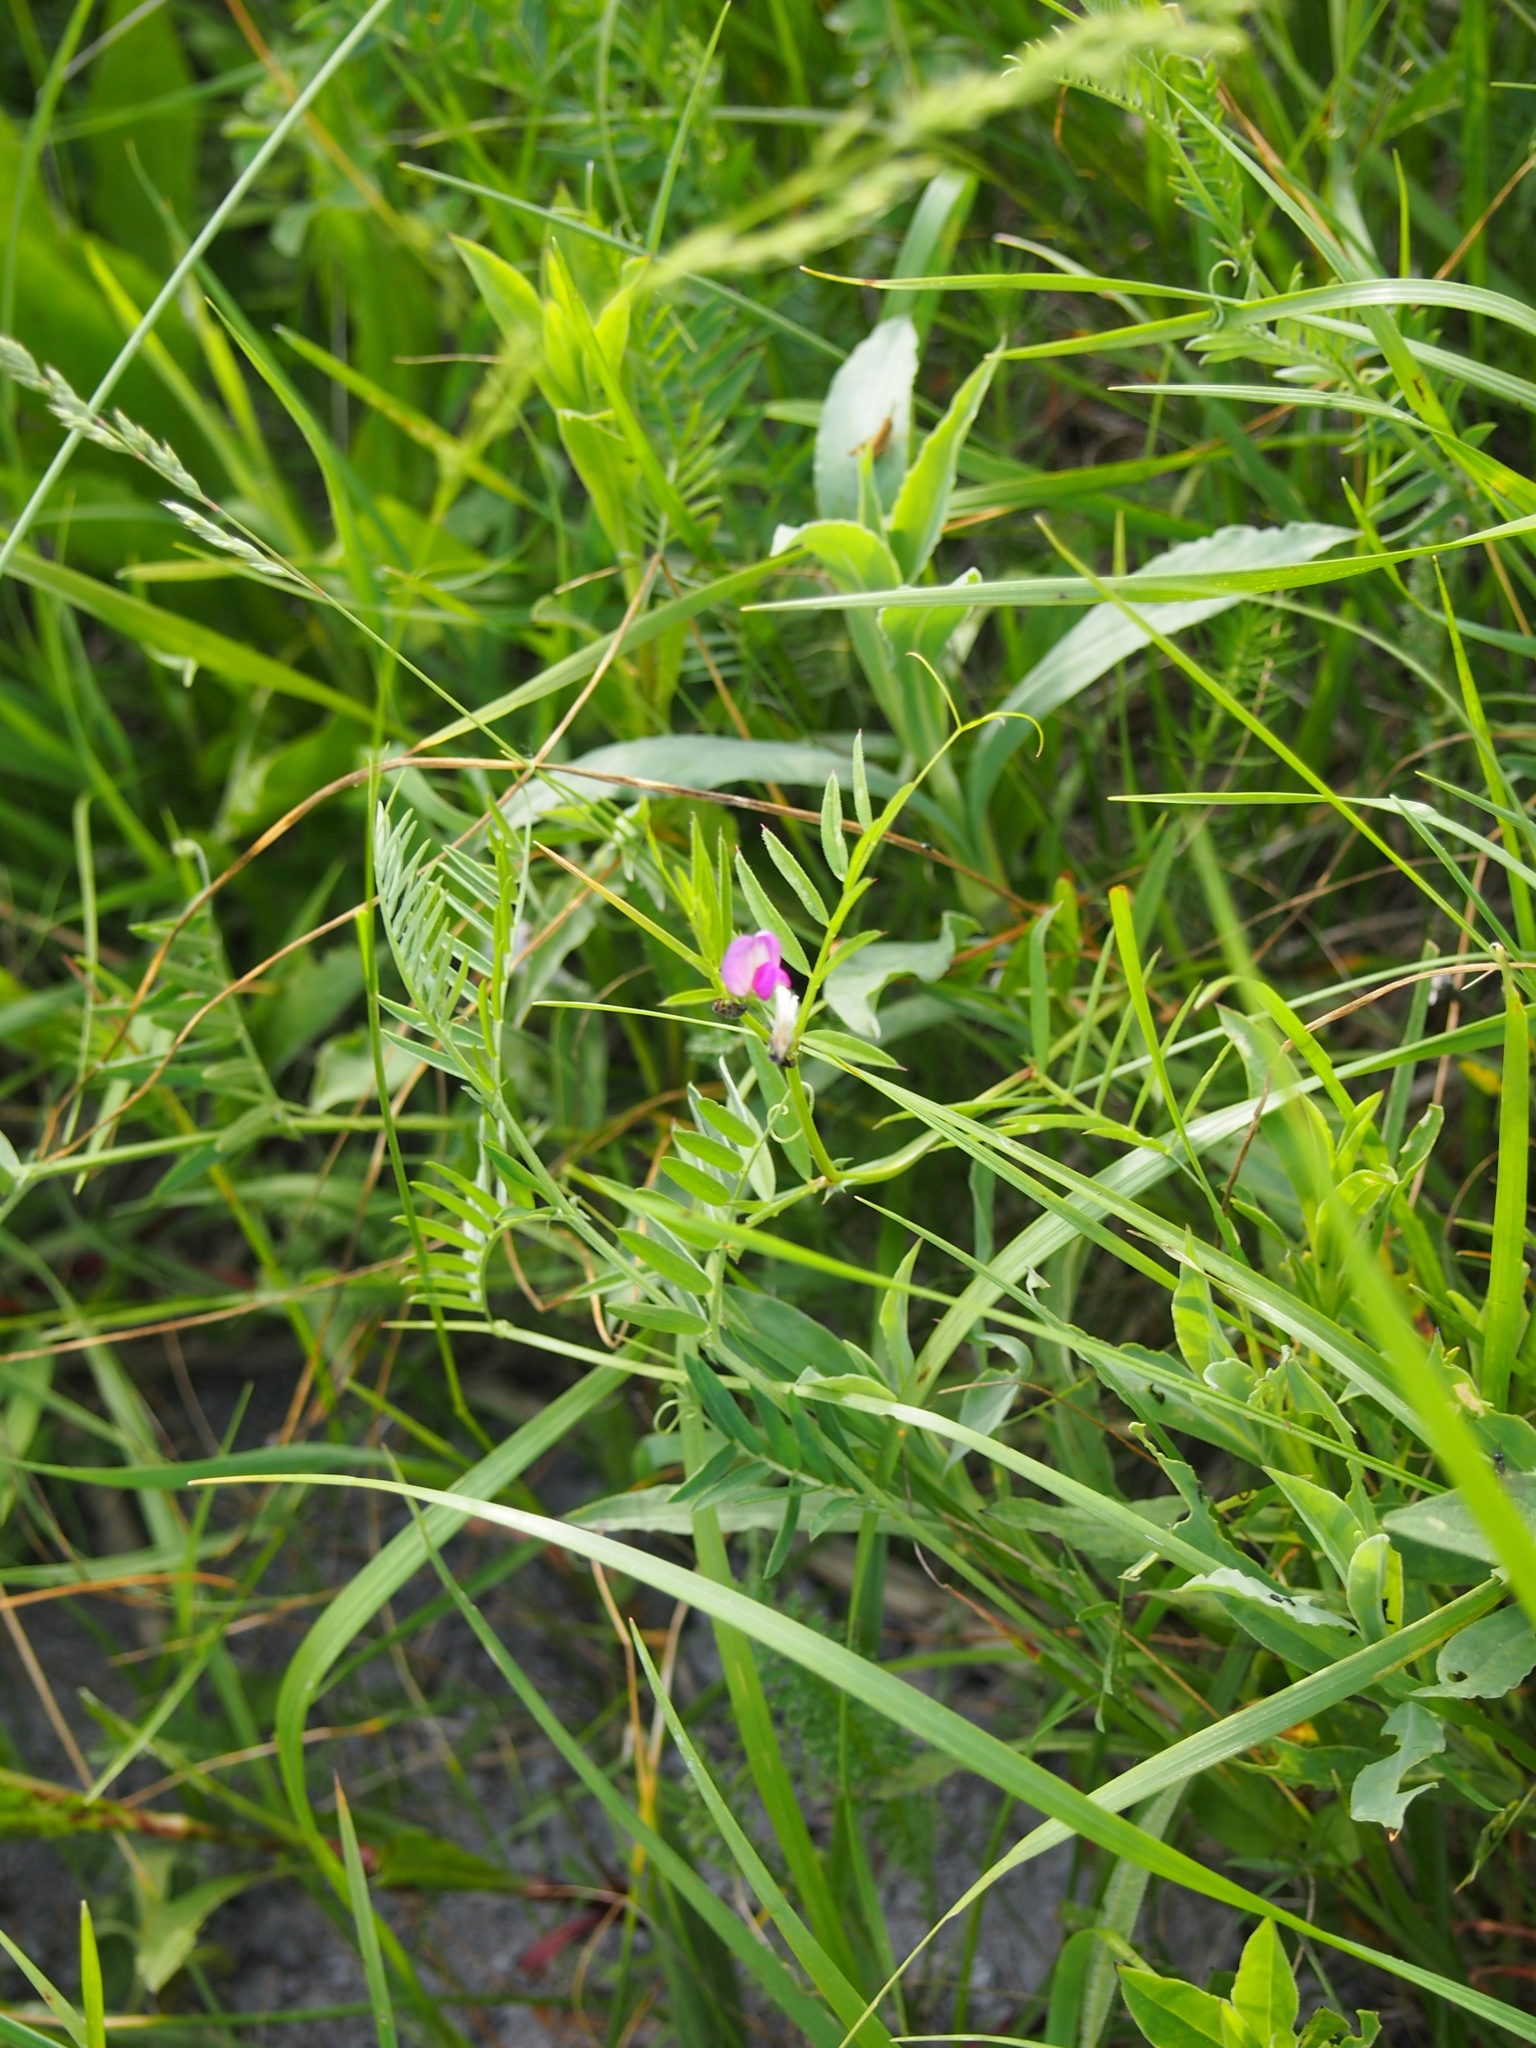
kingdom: Plantae
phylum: Tracheophyta
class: Magnoliopsida
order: Fabales
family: Fabaceae
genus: Vicia
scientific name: Vicia sativa
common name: Garden vetch
